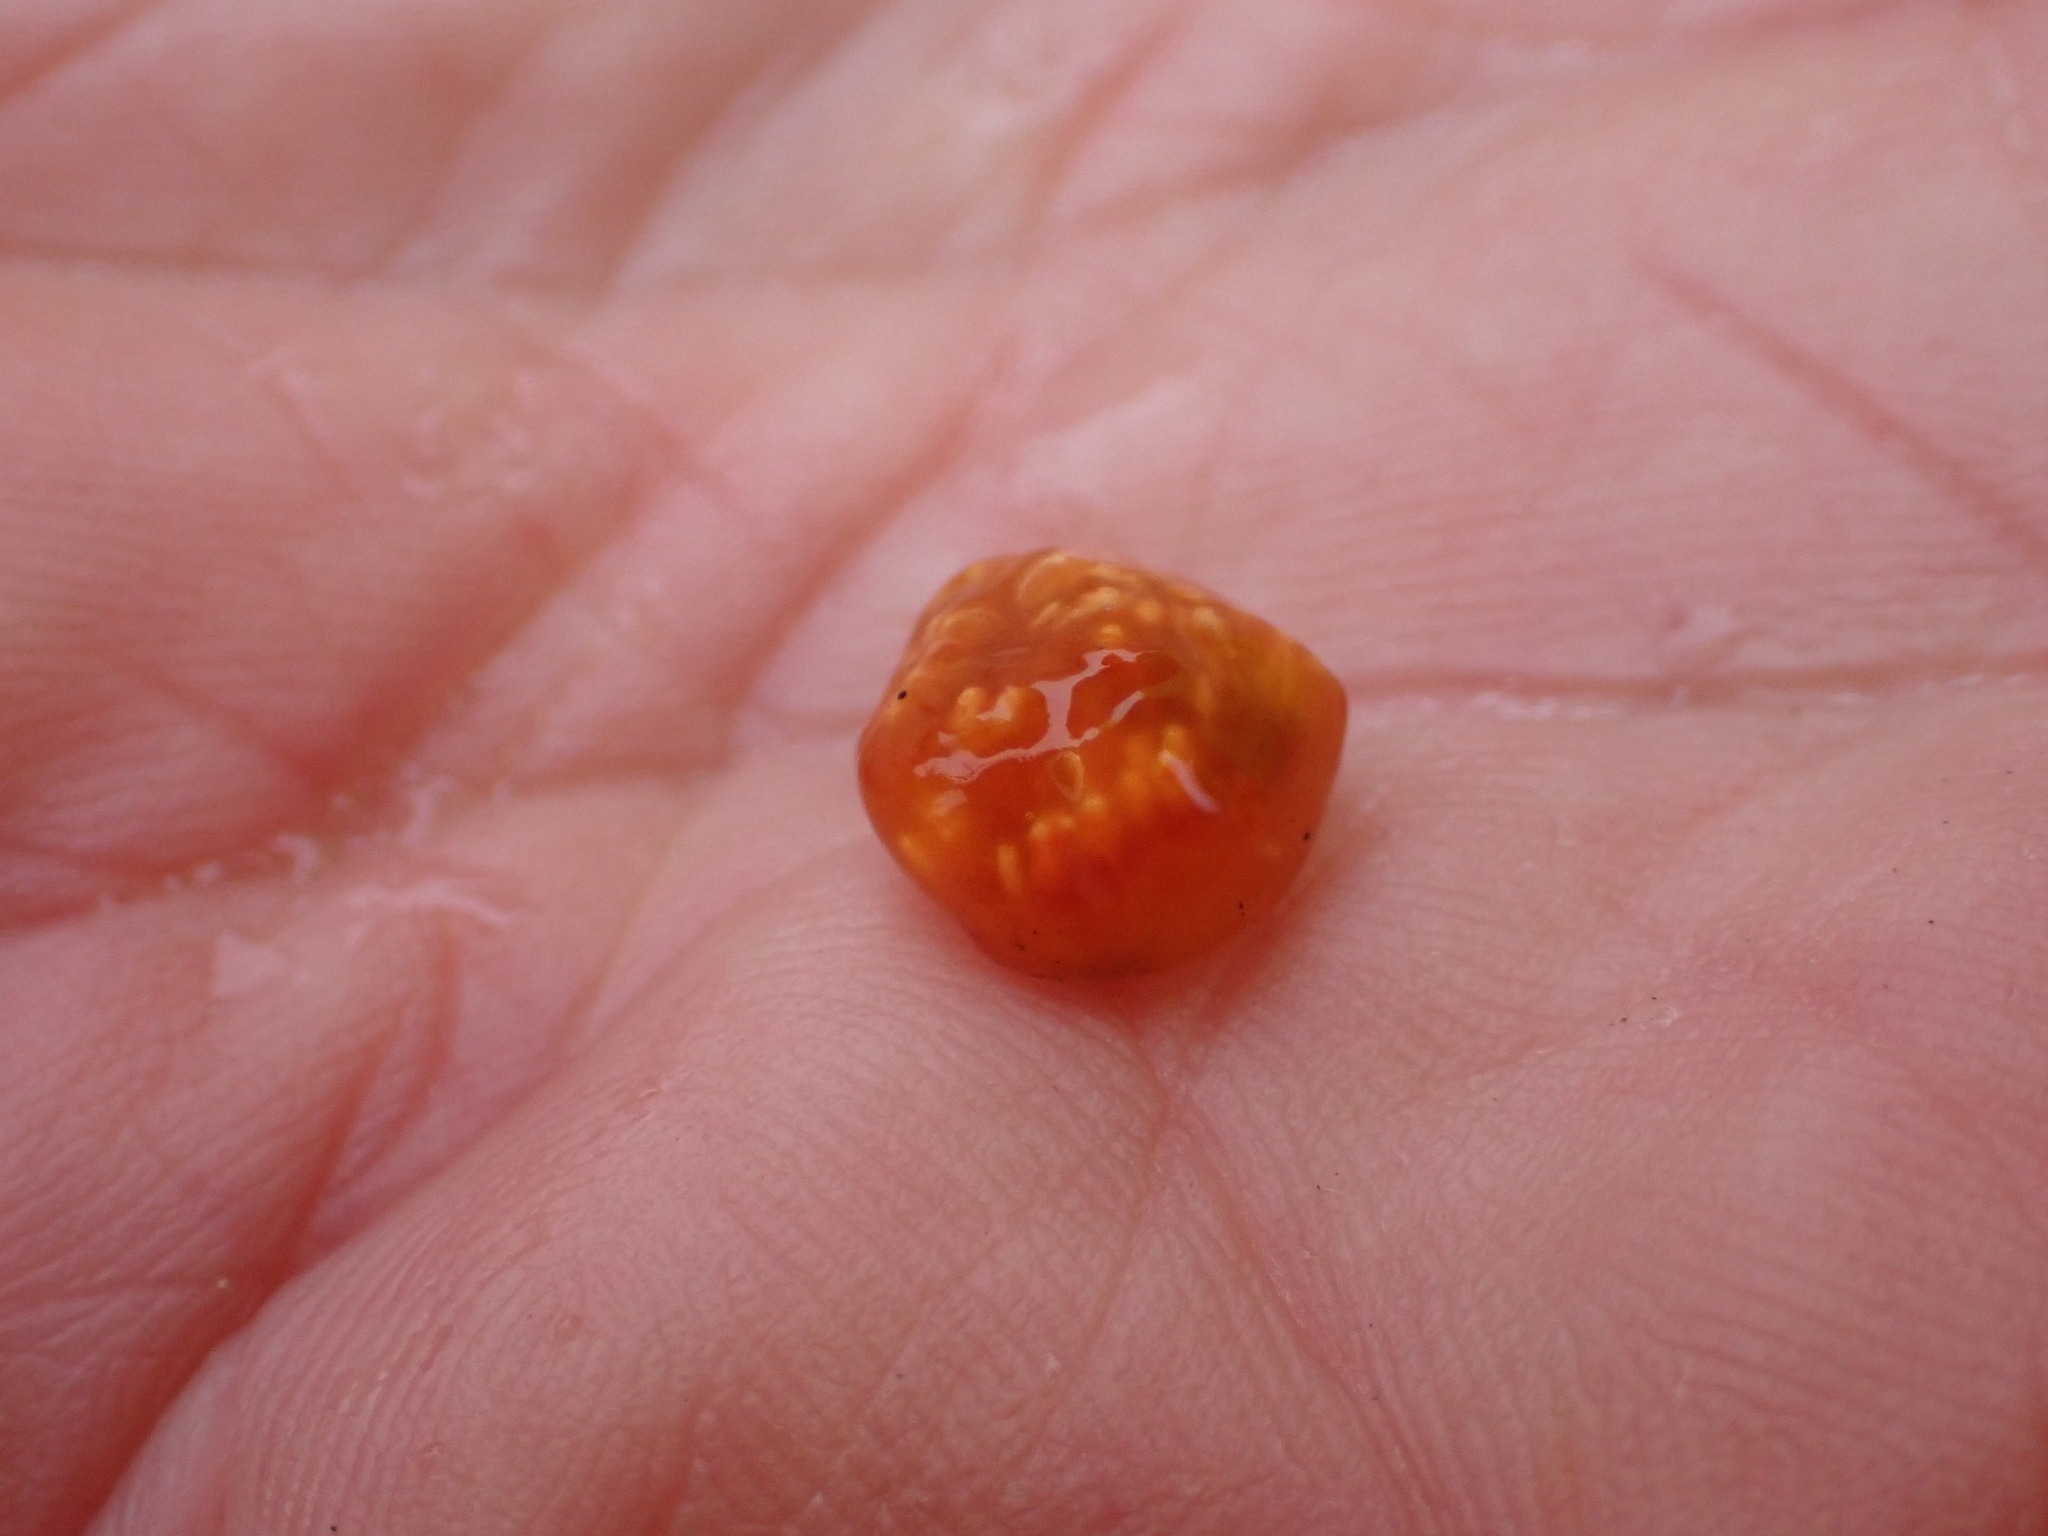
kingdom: Animalia
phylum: Chordata
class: Ascidiacea
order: Aplousobranchia
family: Polyclinidae
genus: Aplidium
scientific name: Aplidium benhami
